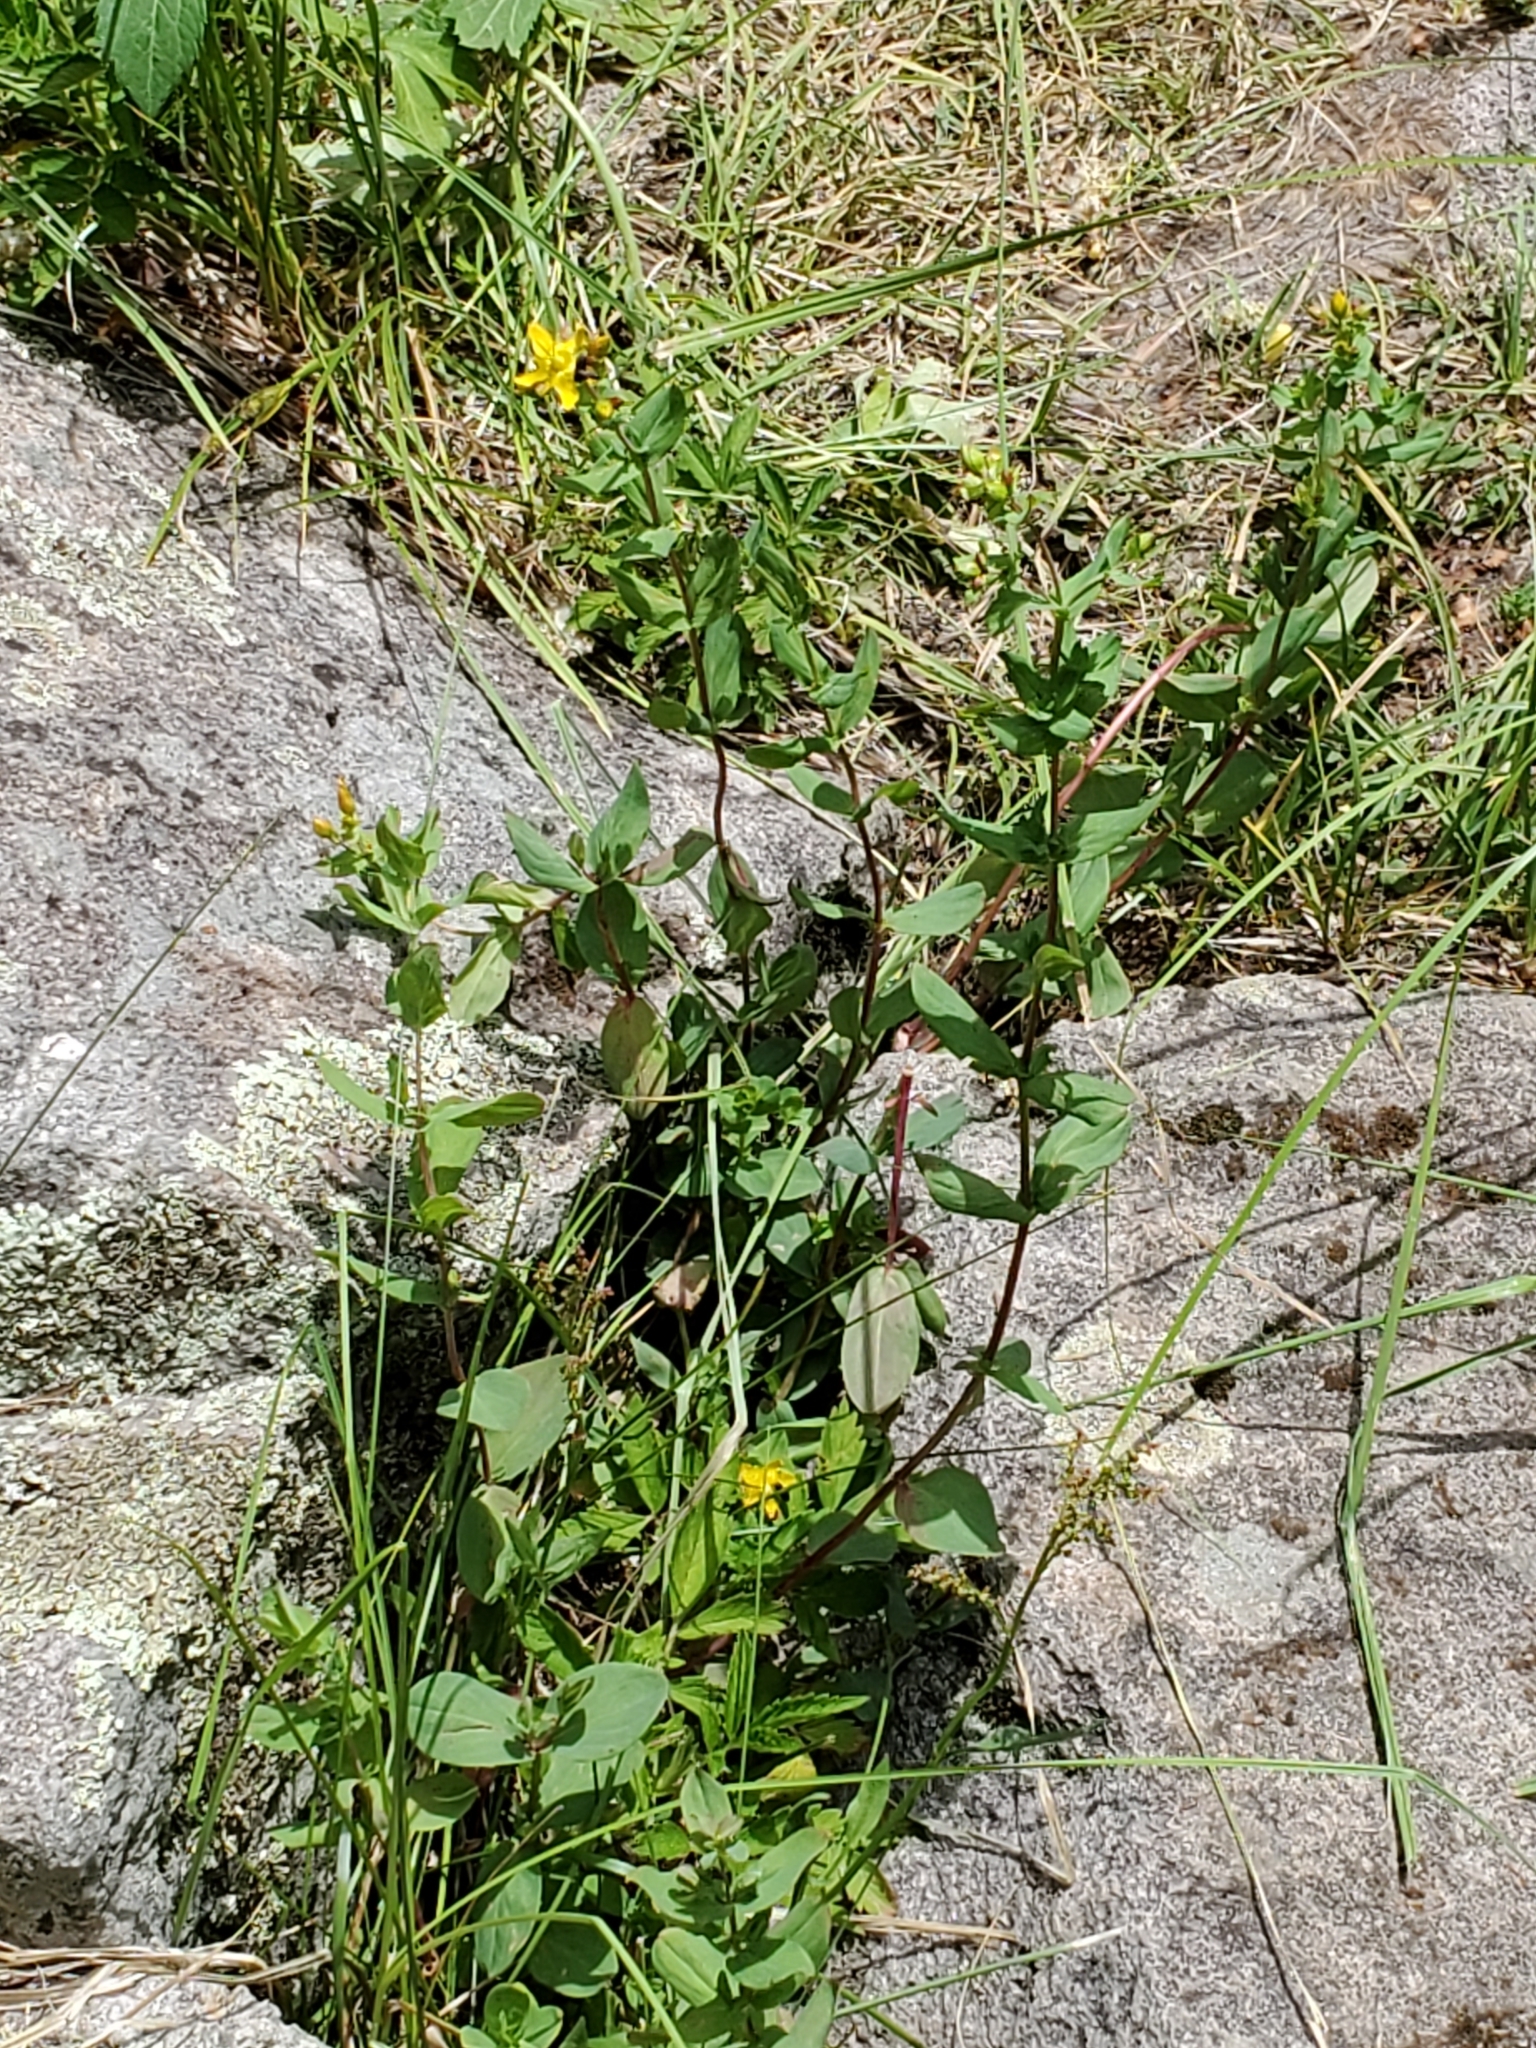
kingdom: Plantae
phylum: Tracheophyta
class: Magnoliopsida
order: Malpighiales
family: Hypericaceae
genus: Hypericum
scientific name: Hypericum scouleri
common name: Scouler's st. john's-wort
